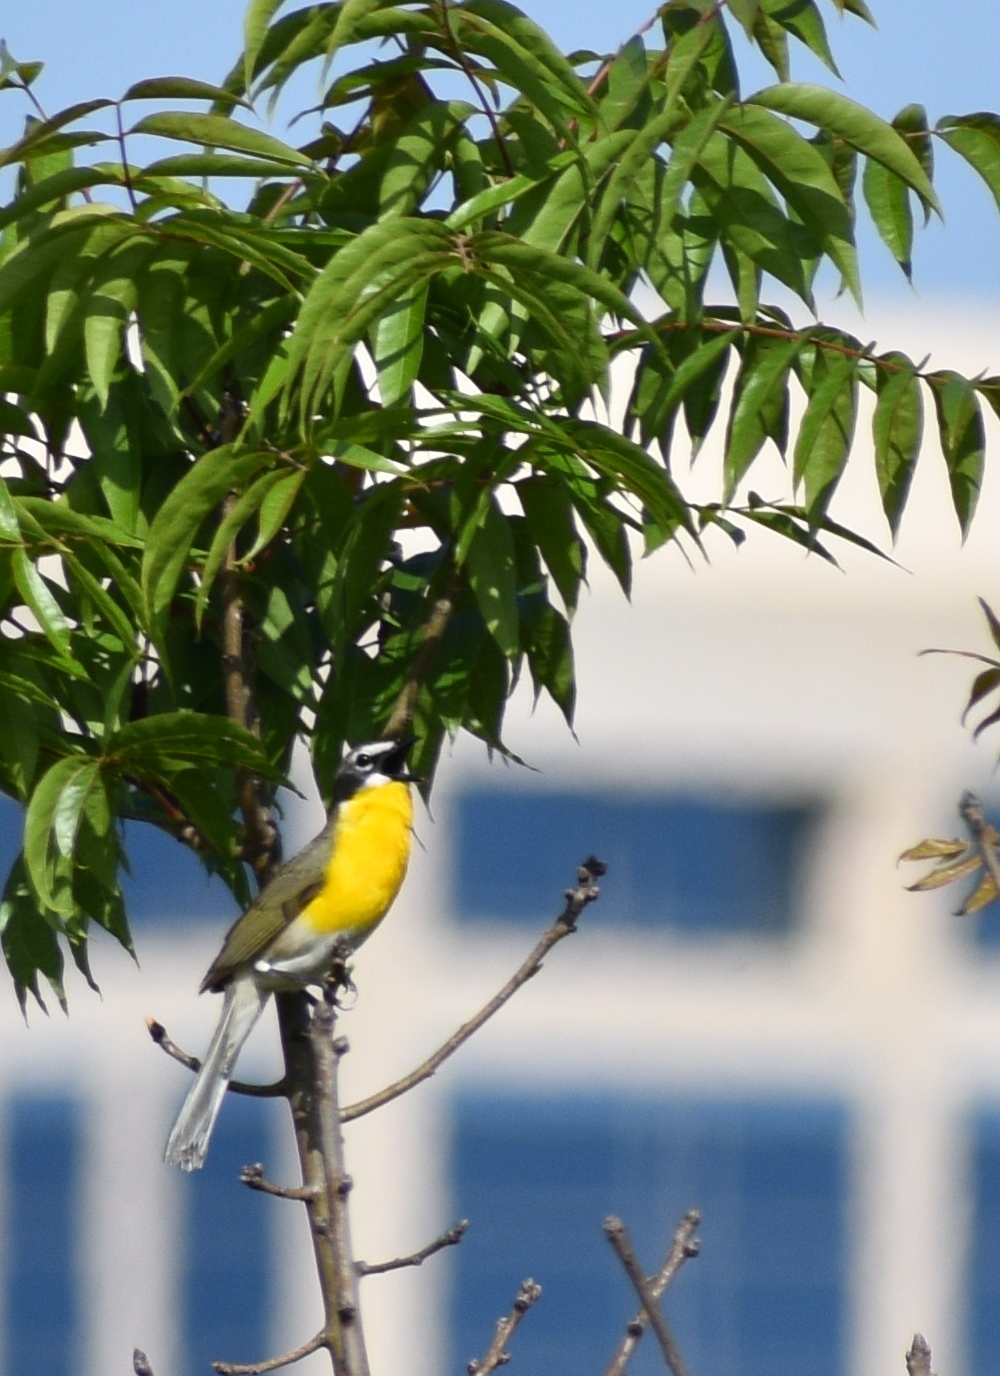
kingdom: Animalia
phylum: Chordata
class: Aves
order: Passeriformes
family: Parulidae
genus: Icteria
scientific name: Icteria virens
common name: Yellow-breasted chat
